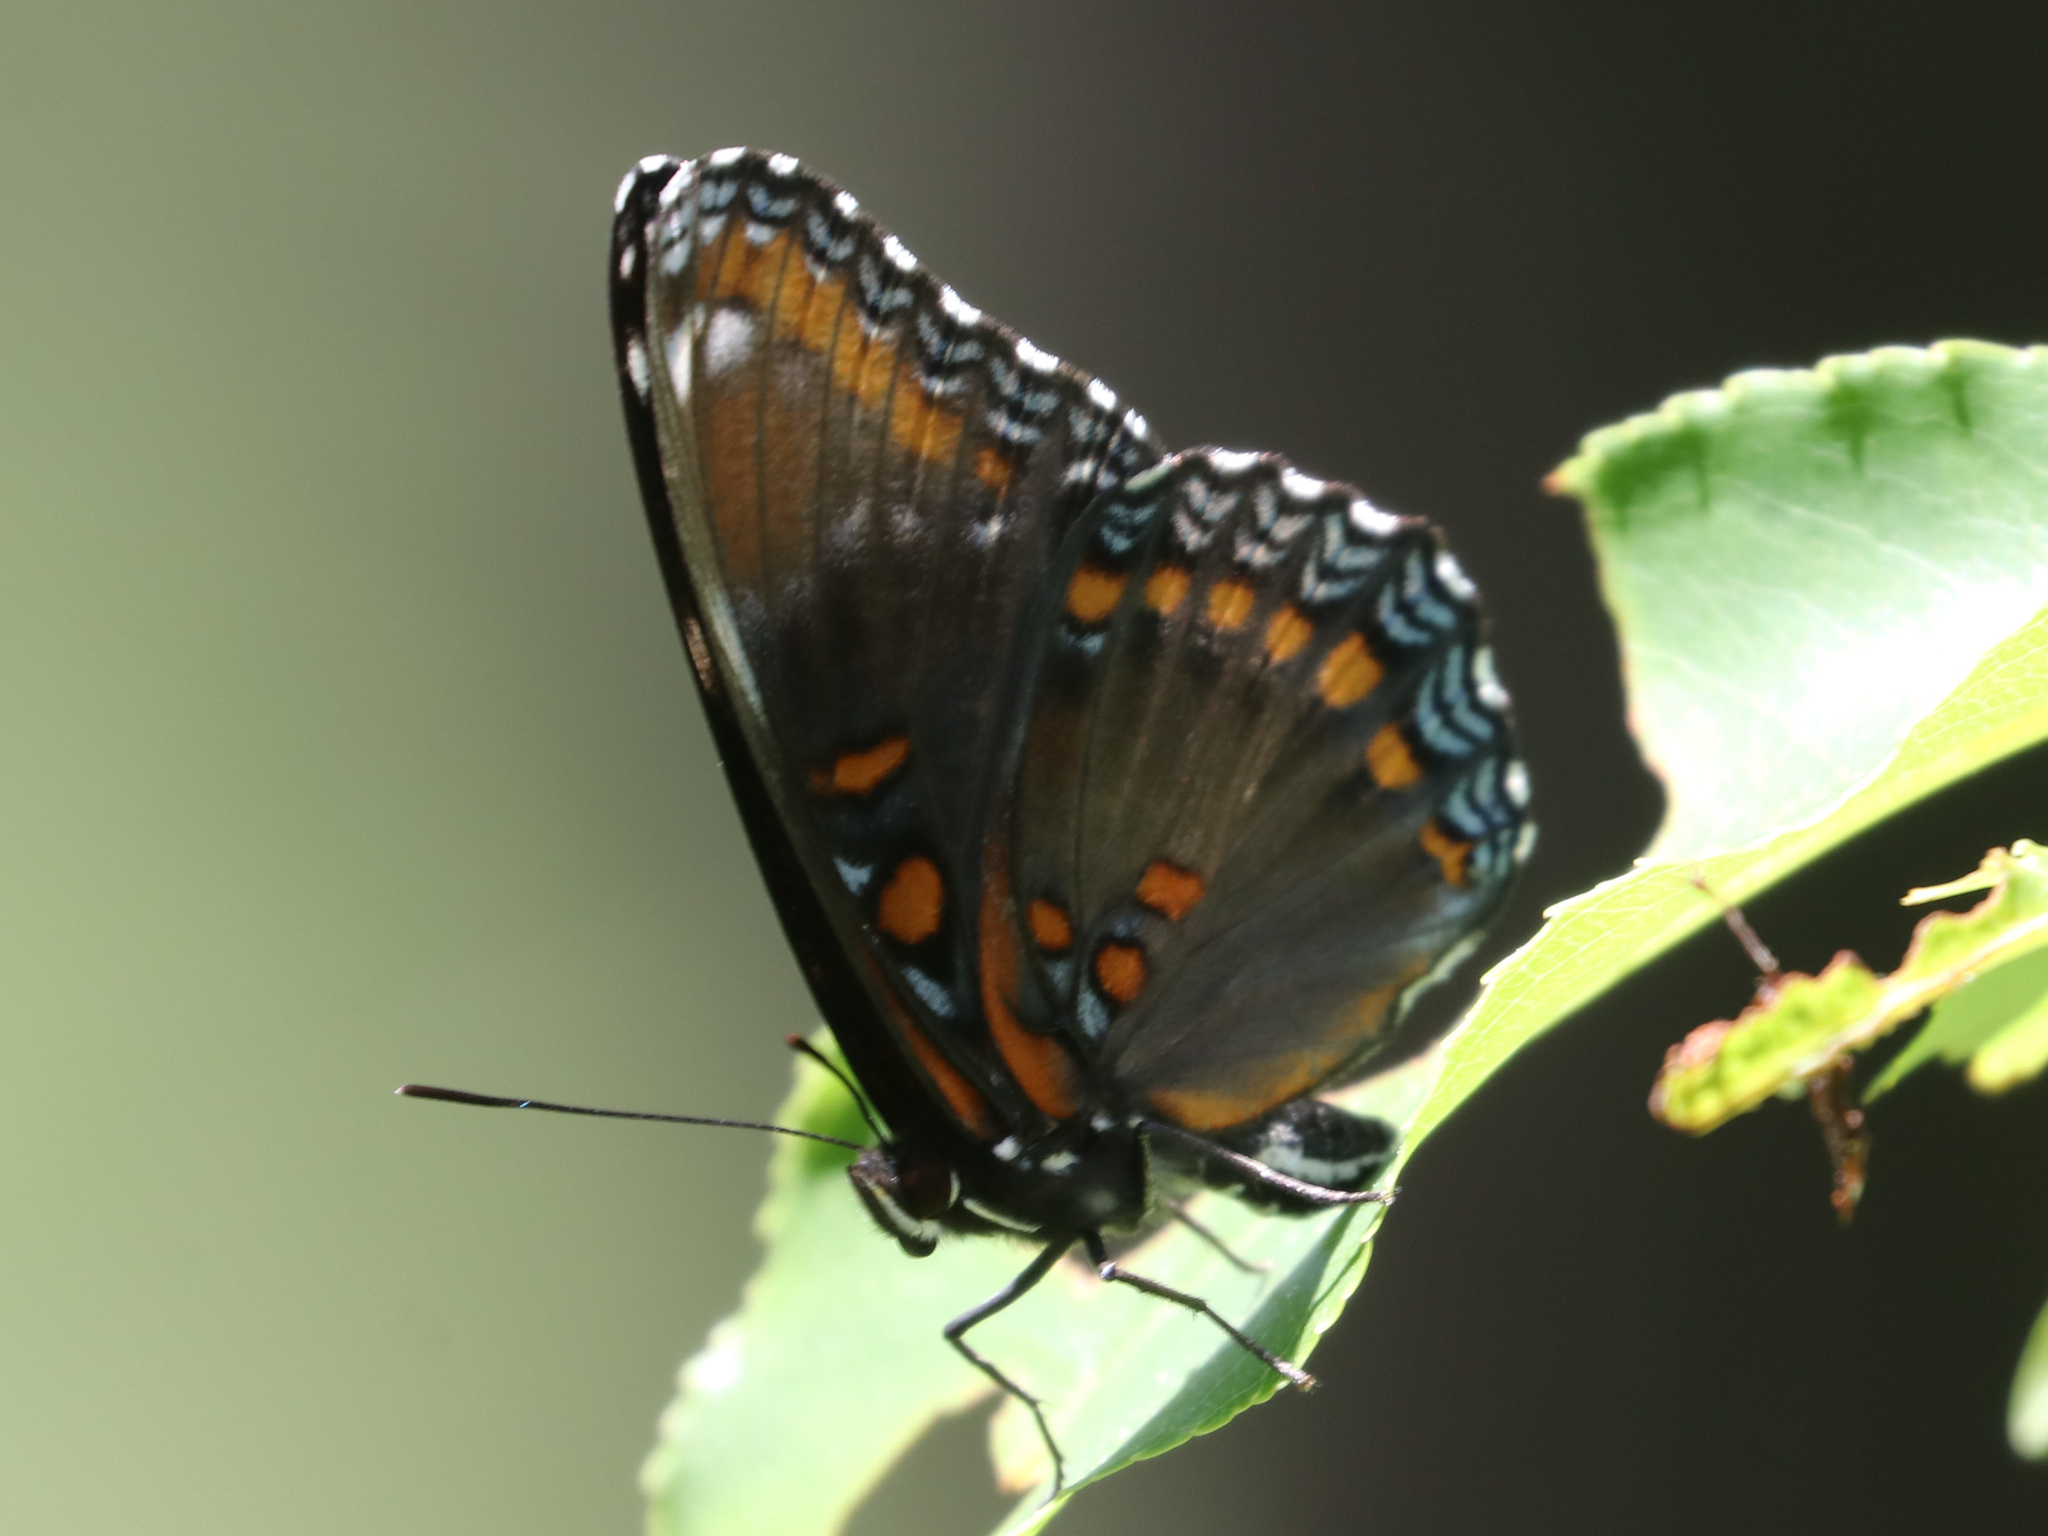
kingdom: Animalia
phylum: Arthropoda
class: Insecta
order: Lepidoptera
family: Nymphalidae
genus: Limenitis
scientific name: Limenitis arthemis
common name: Red-spotted admiral
